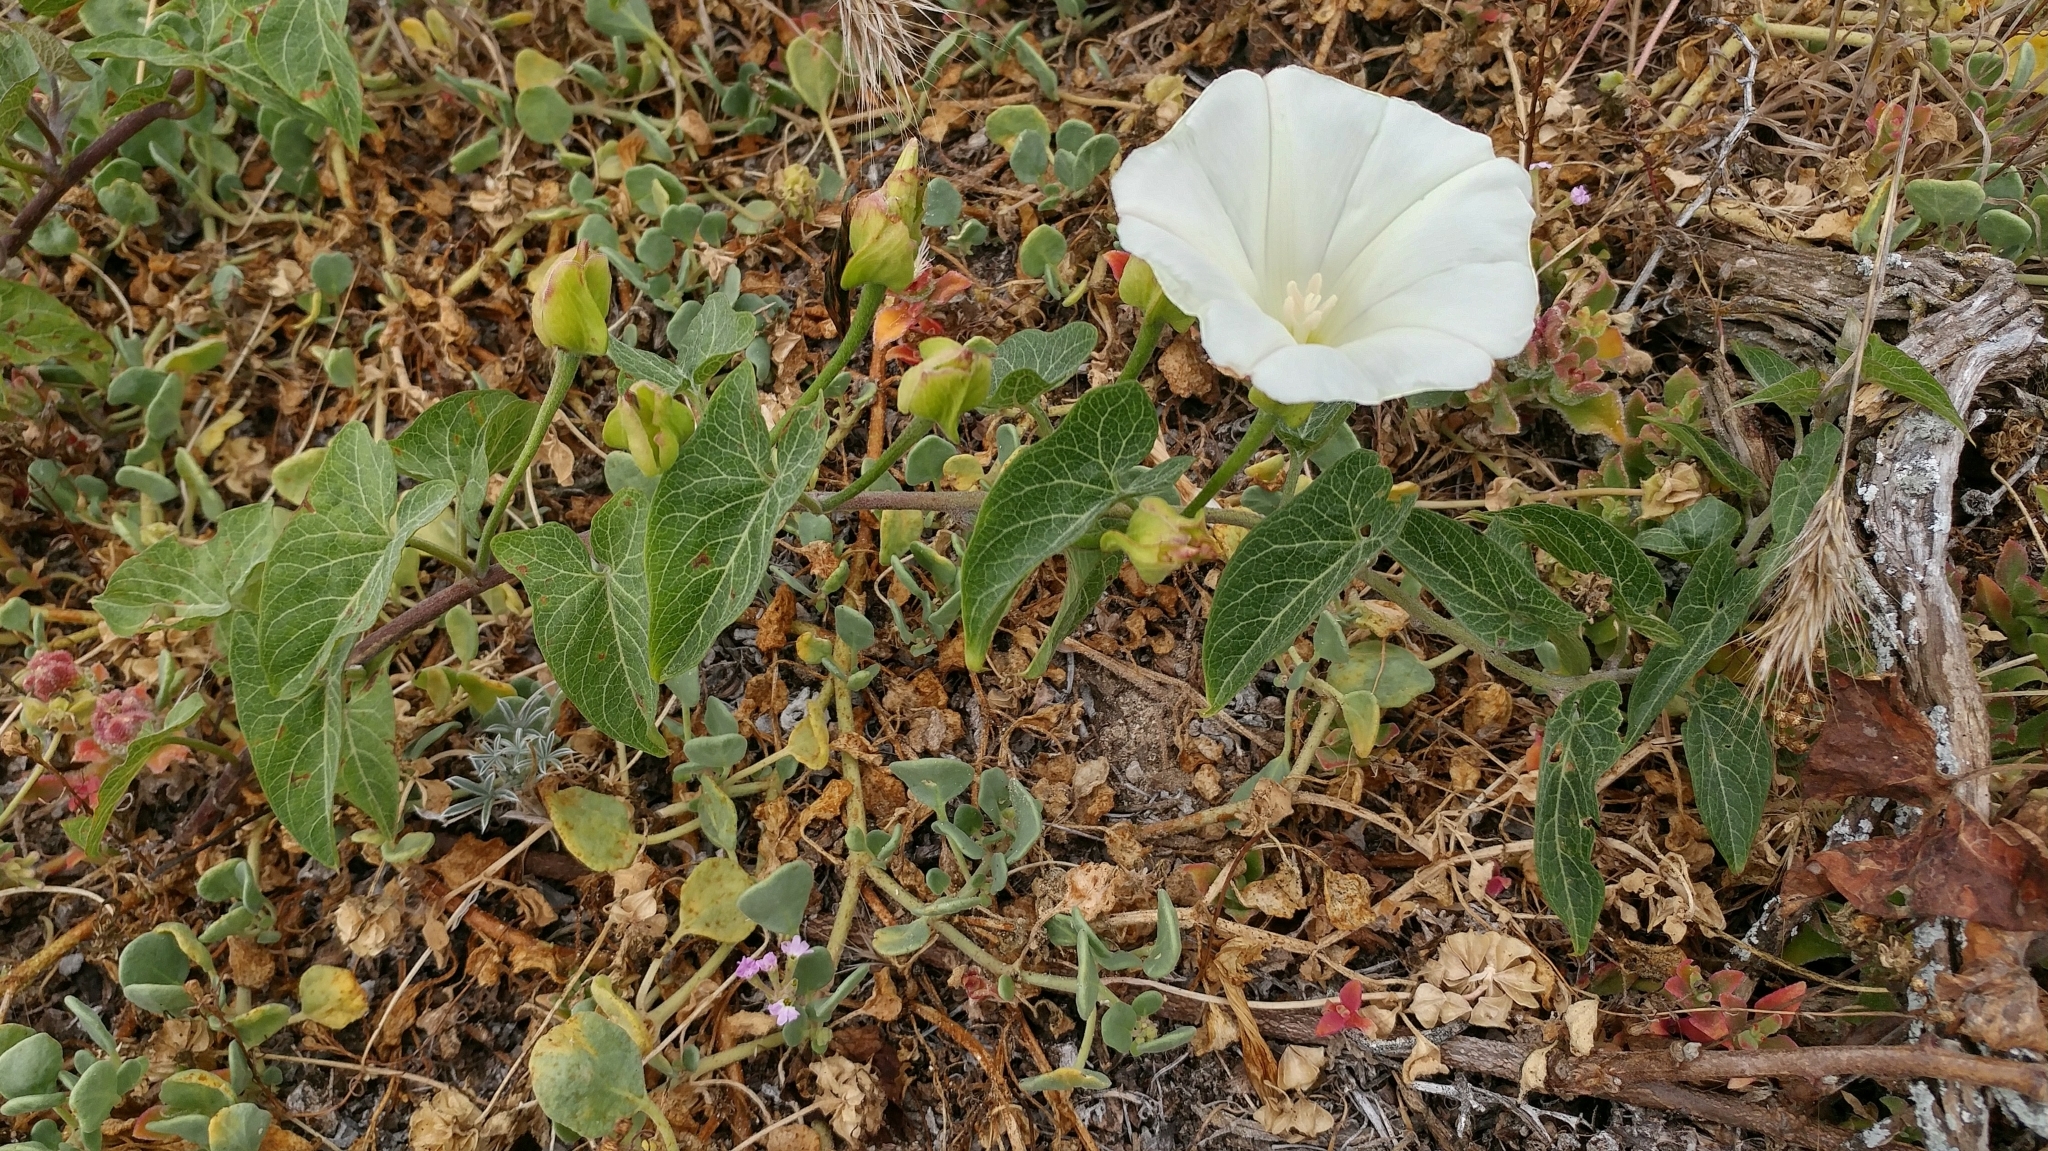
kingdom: Plantae
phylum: Tracheophyta
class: Magnoliopsida
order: Solanales
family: Convolvulaceae
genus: Calystegia
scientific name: Calystegia macrostegia
